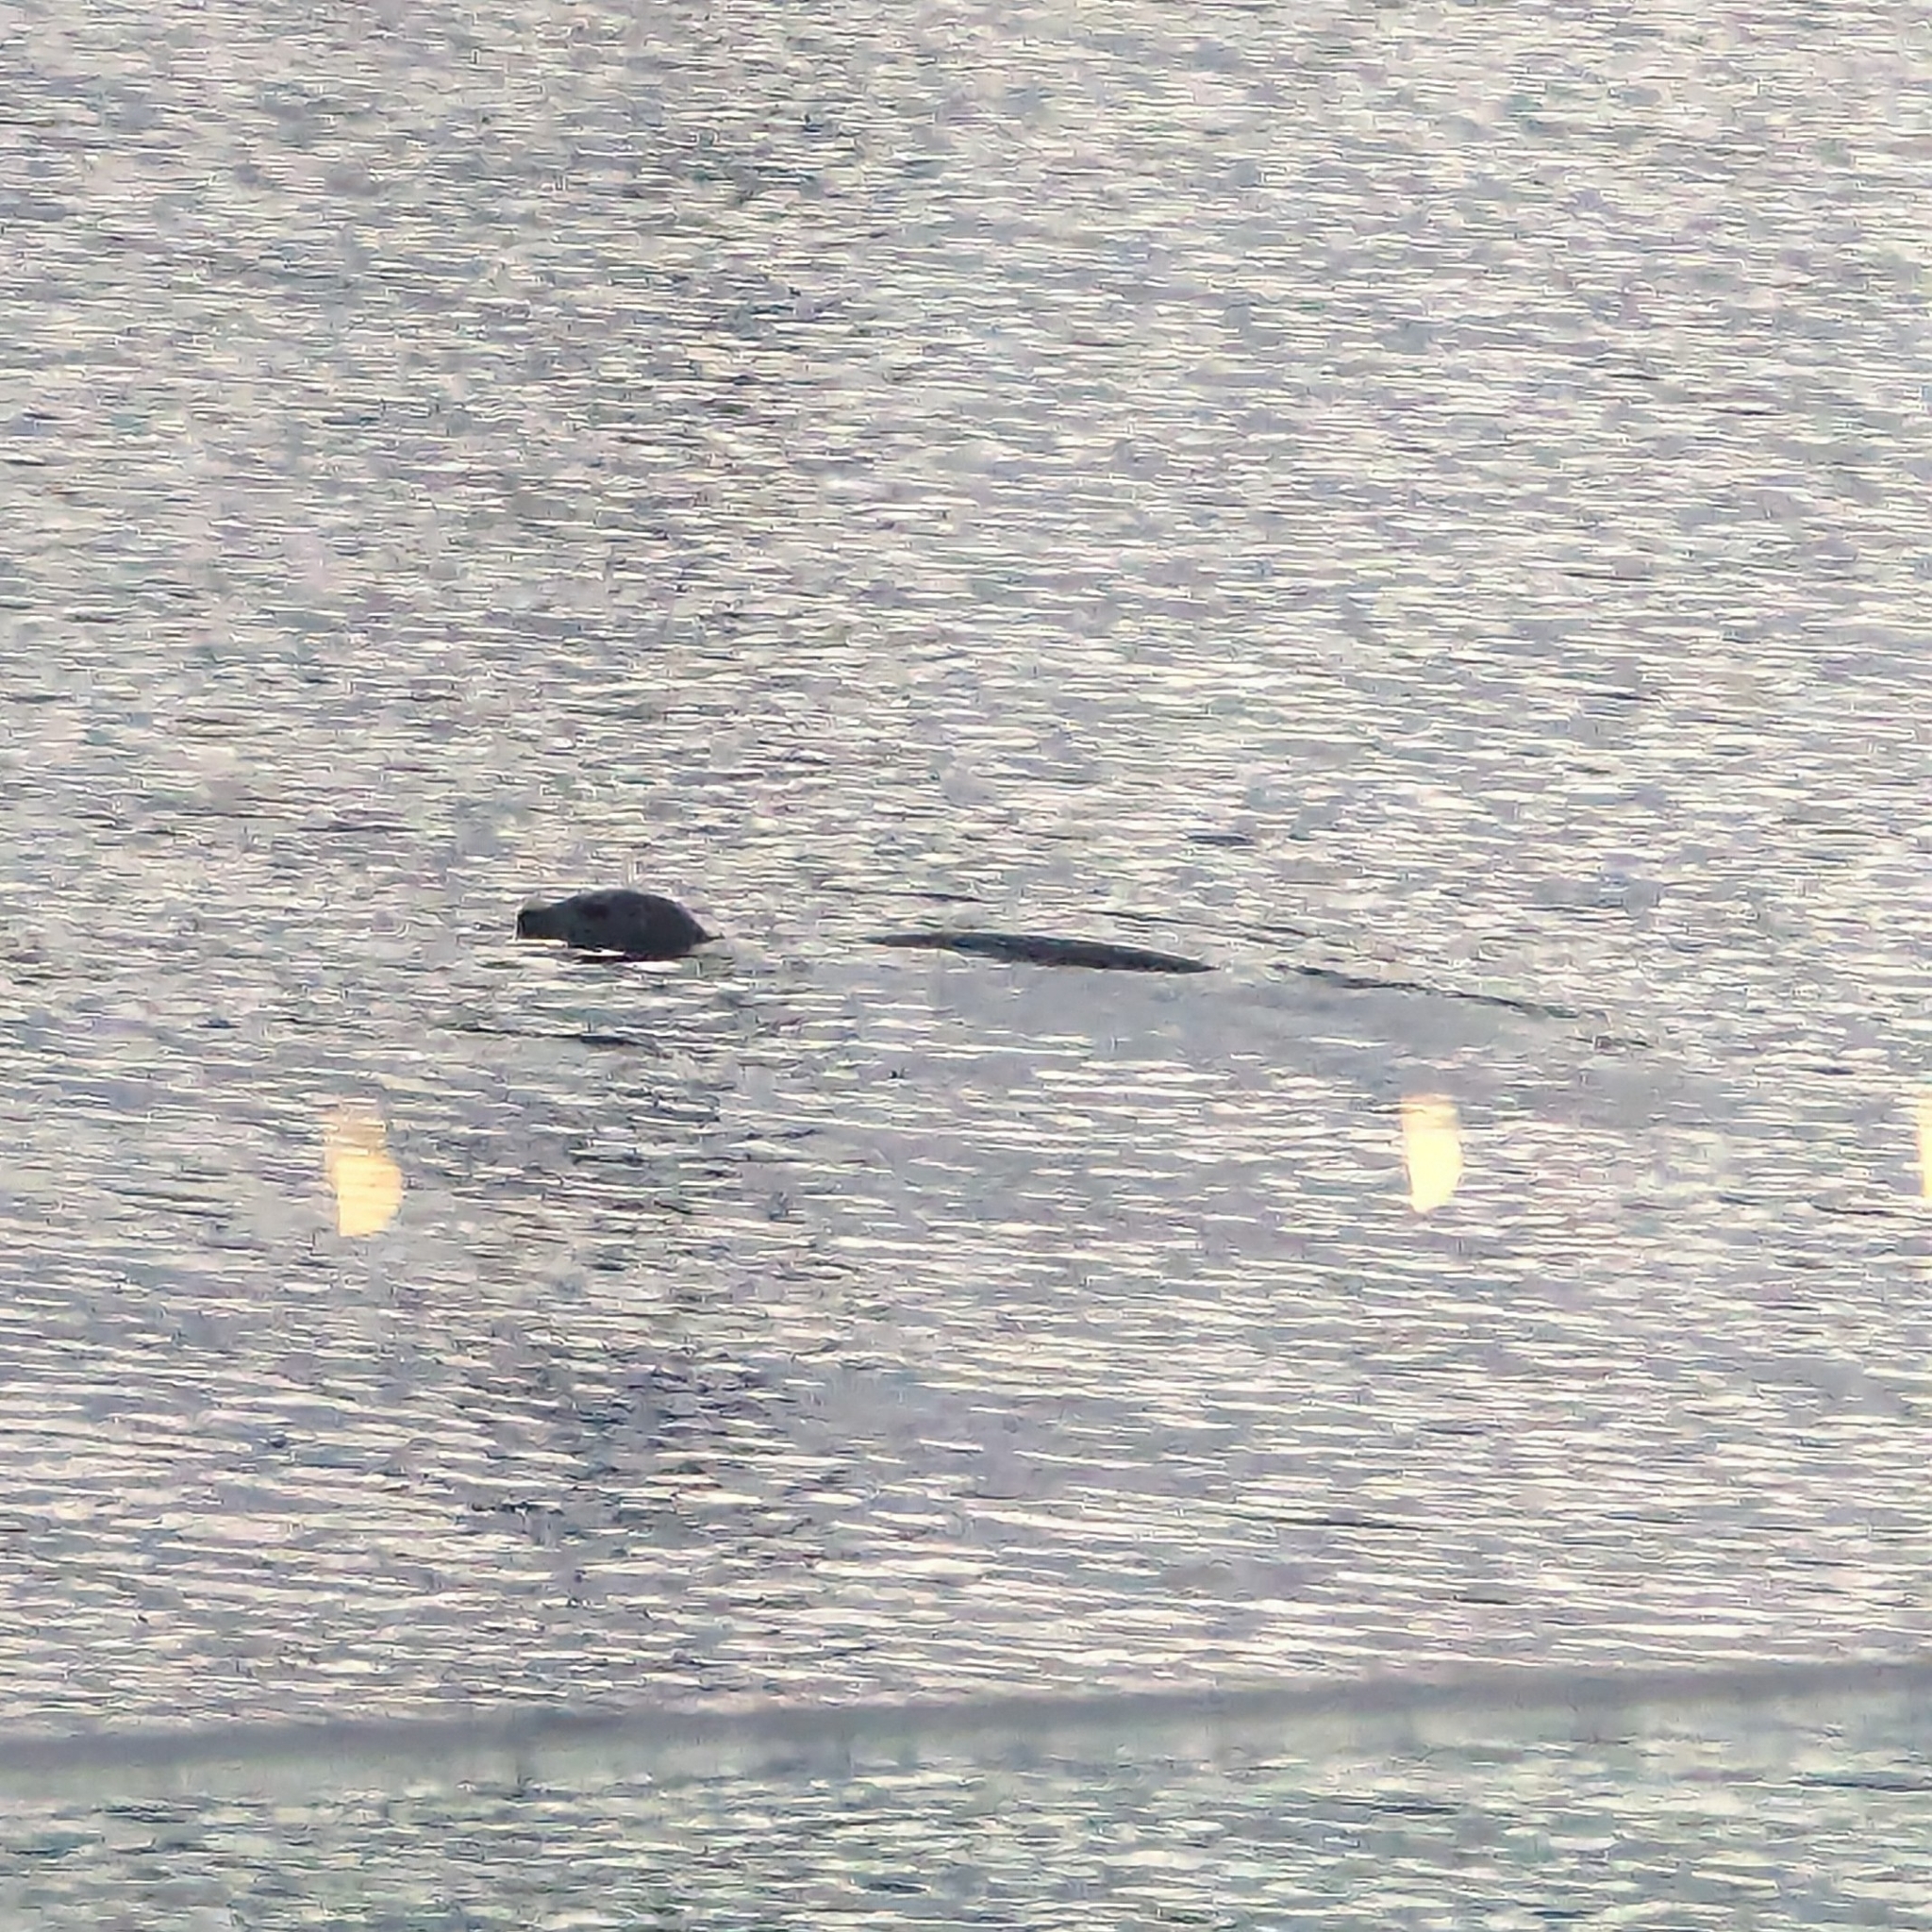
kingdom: Animalia
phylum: Chordata
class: Mammalia
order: Carnivora
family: Phocidae
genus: Phoca
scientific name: Phoca vitulina
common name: Harbor seal
